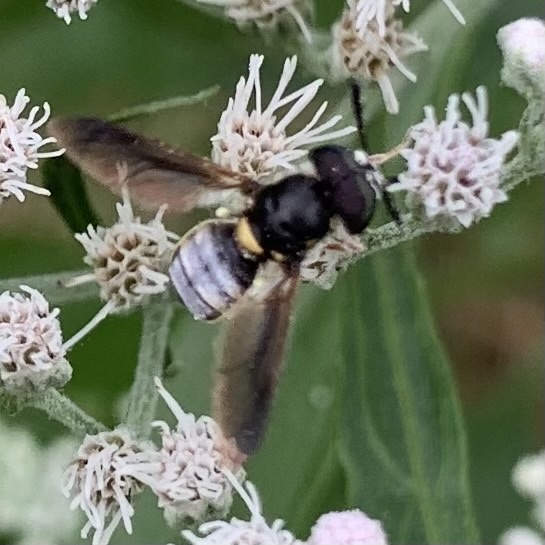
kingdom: Animalia
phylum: Arthropoda
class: Insecta
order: Diptera
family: Stratiomyidae
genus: Hoplitimyia
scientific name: Hoplitimyia constans
